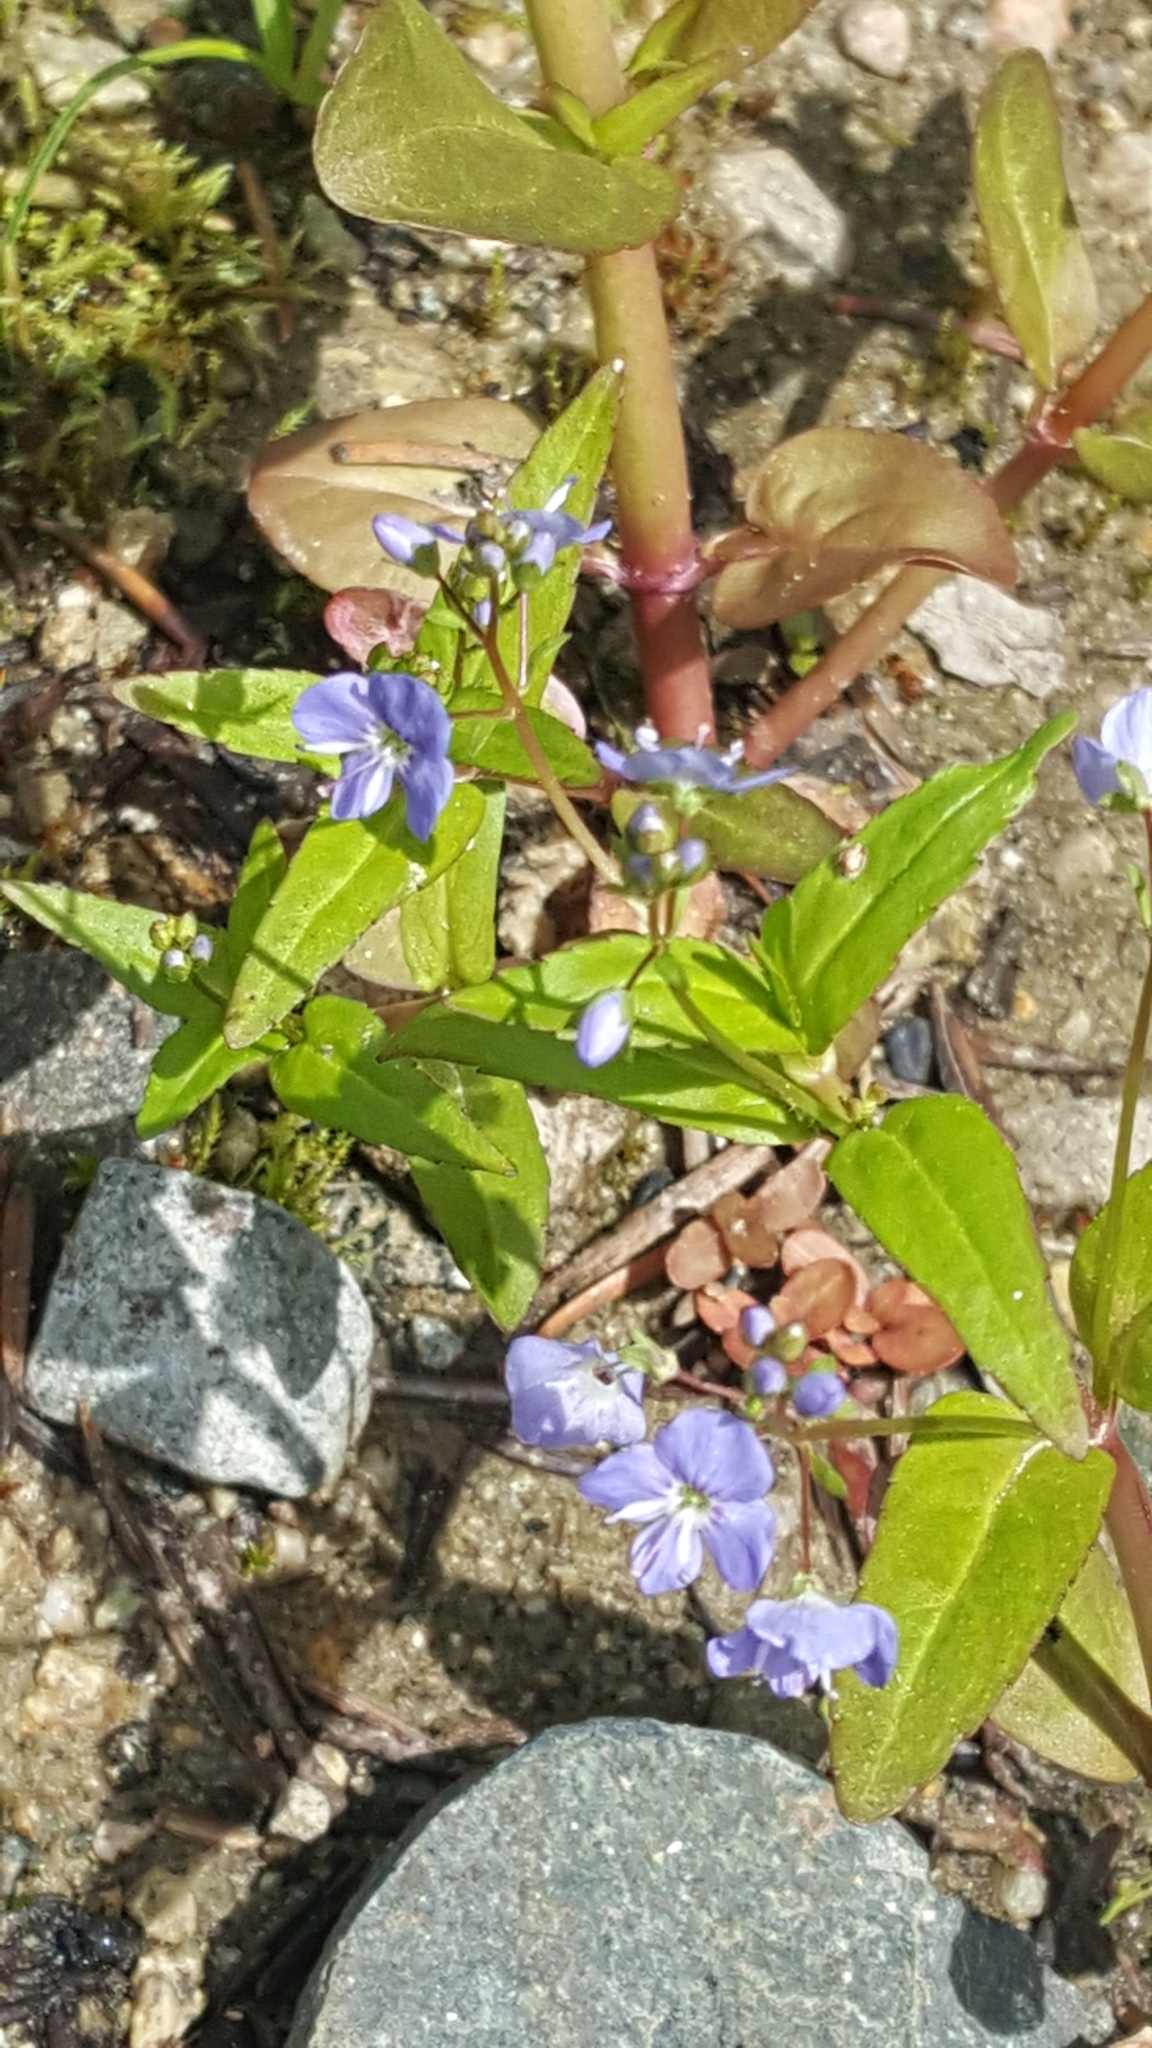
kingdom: Plantae
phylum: Tracheophyta
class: Magnoliopsida
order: Lamiales
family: Plantaginaceae
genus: Veronica
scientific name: Veronica americana
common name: American brooklime
